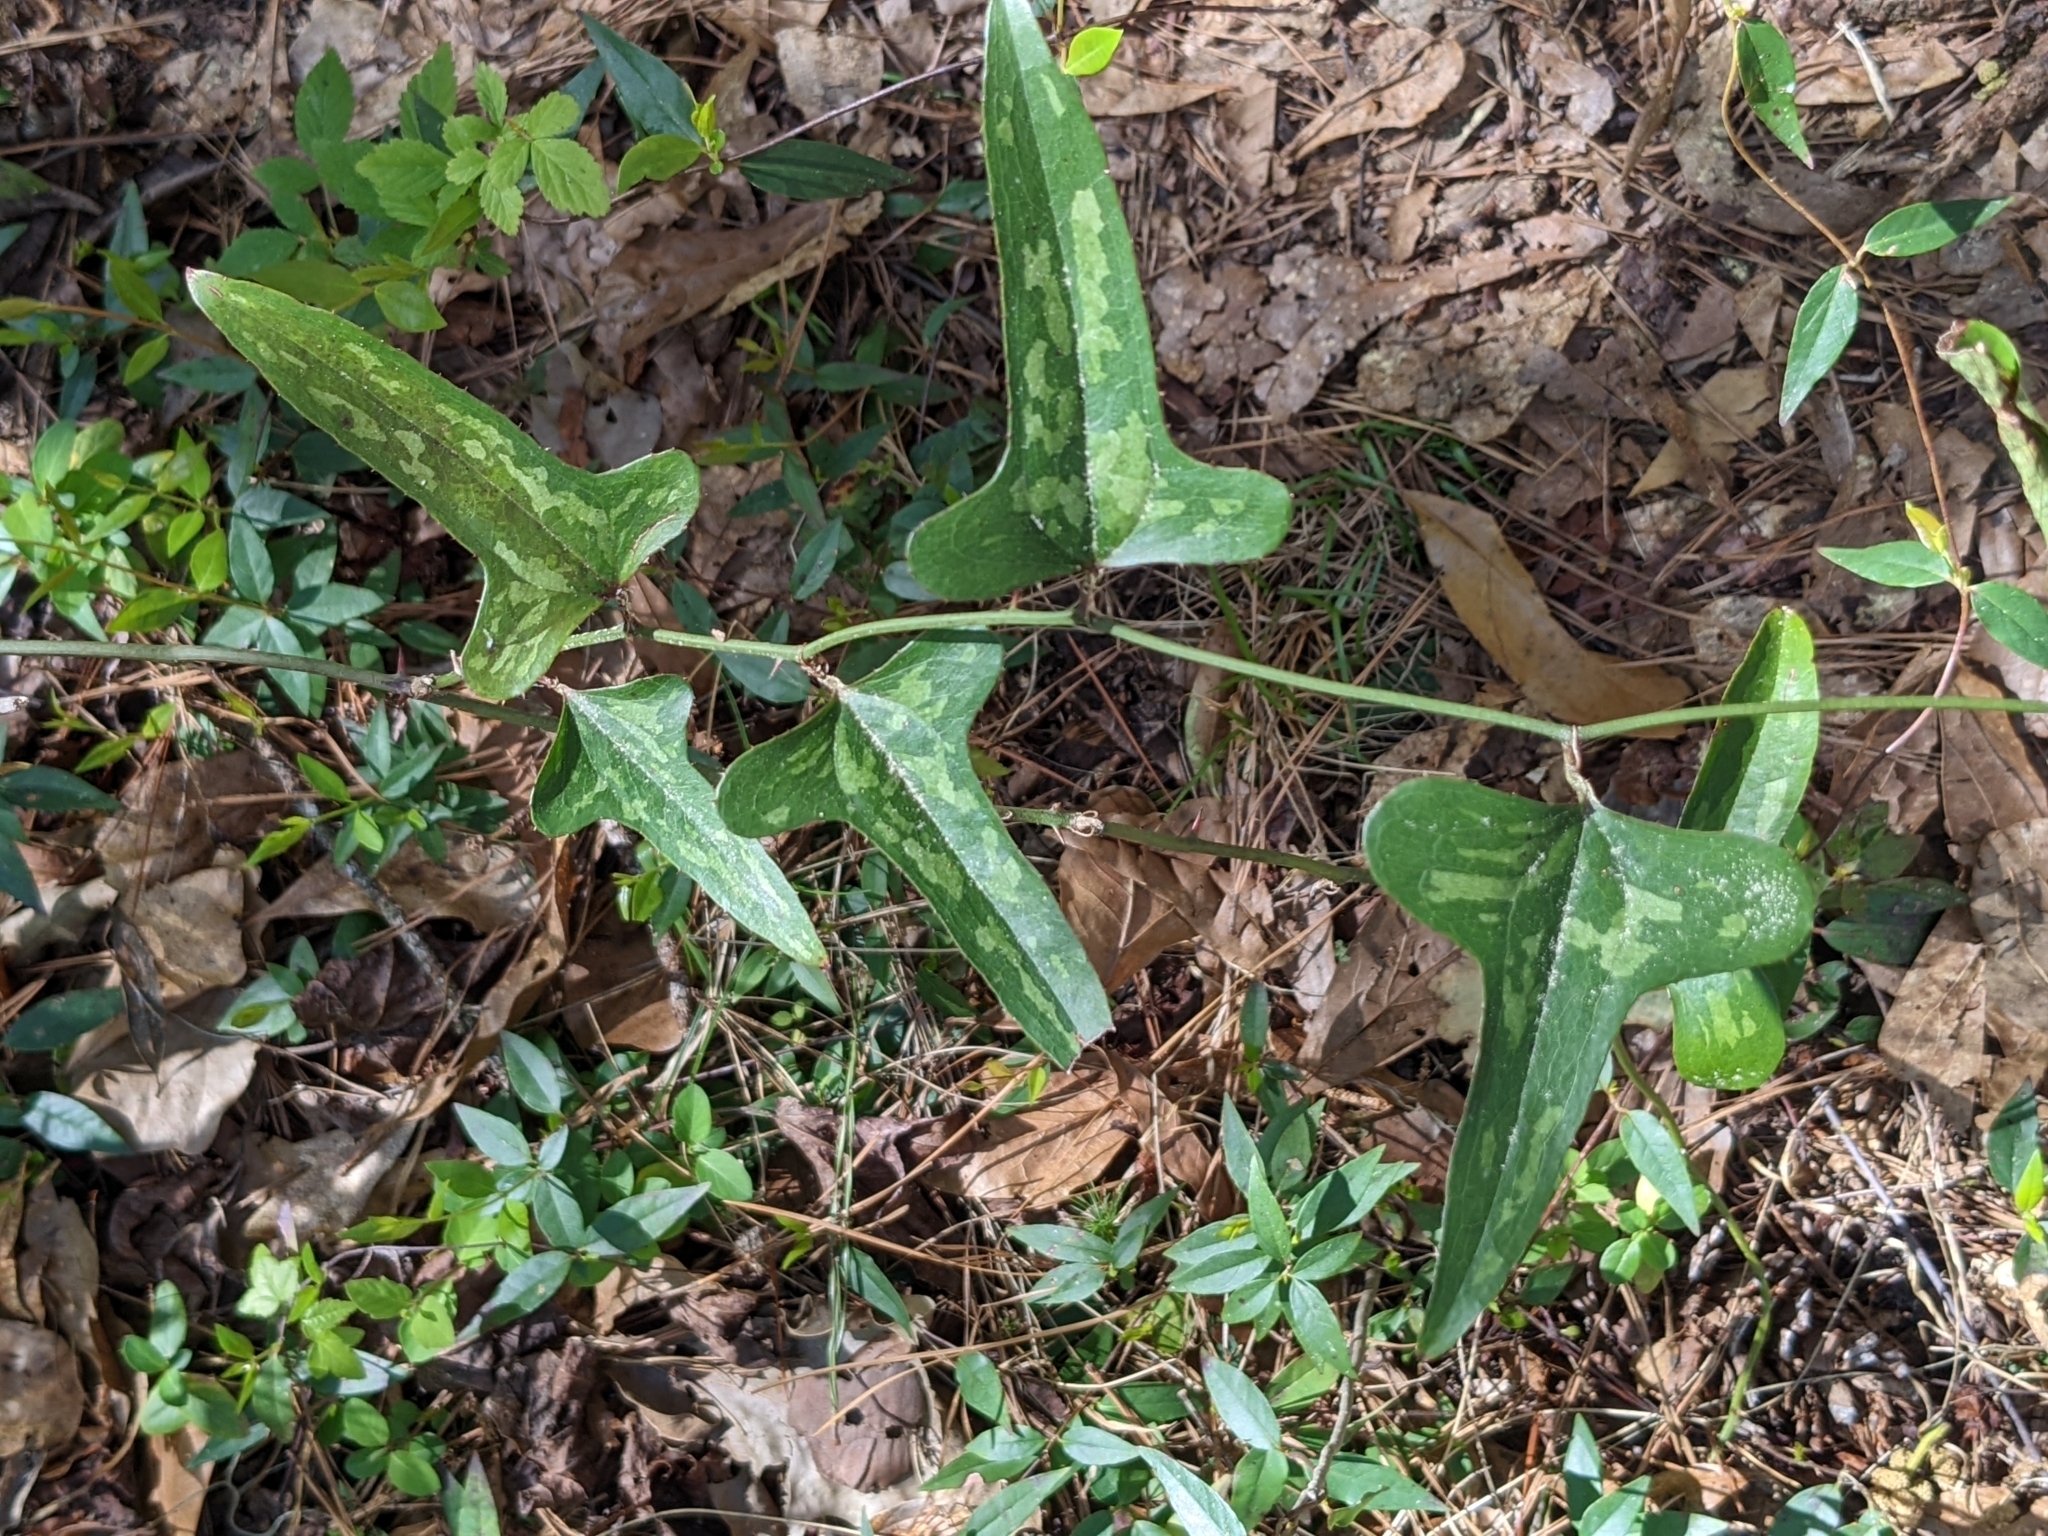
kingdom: Plantae
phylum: Tracheophyta
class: Liliopsida
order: Liliales
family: Smilacaceae
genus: Smilax
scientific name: Smilax bona-nox
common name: Catbrier
